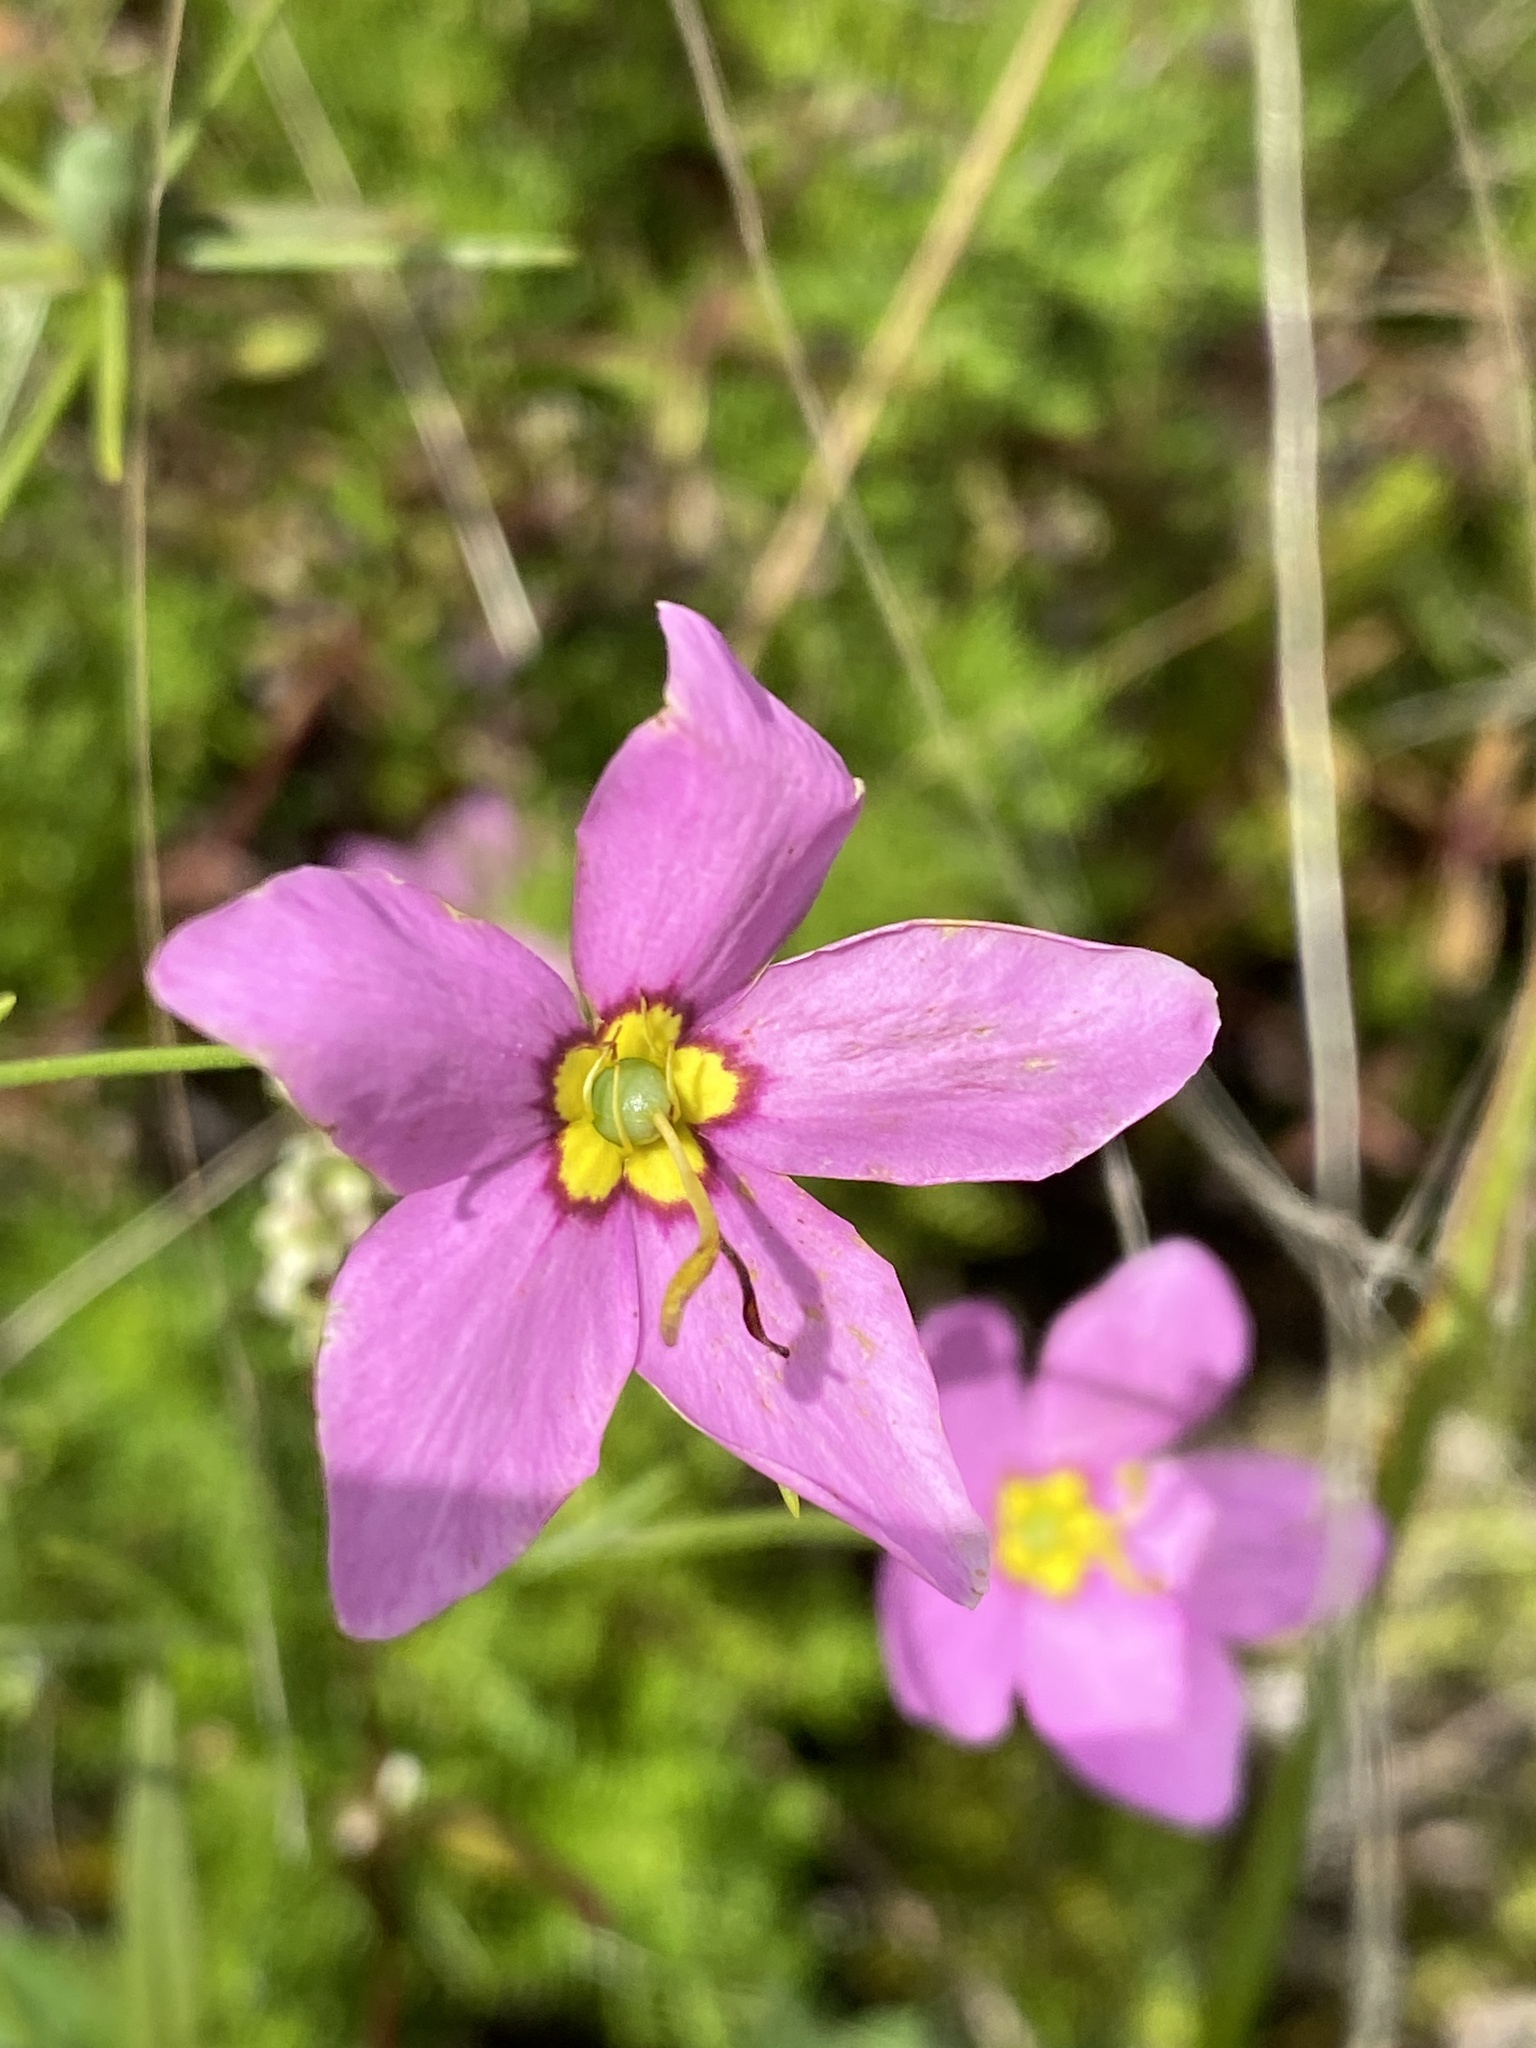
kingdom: Plantae
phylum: Tracheophyta
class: Magnoliopsida
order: Gentianales
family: Gentianaceae
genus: Sabatia
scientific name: Sabatia campanulata
